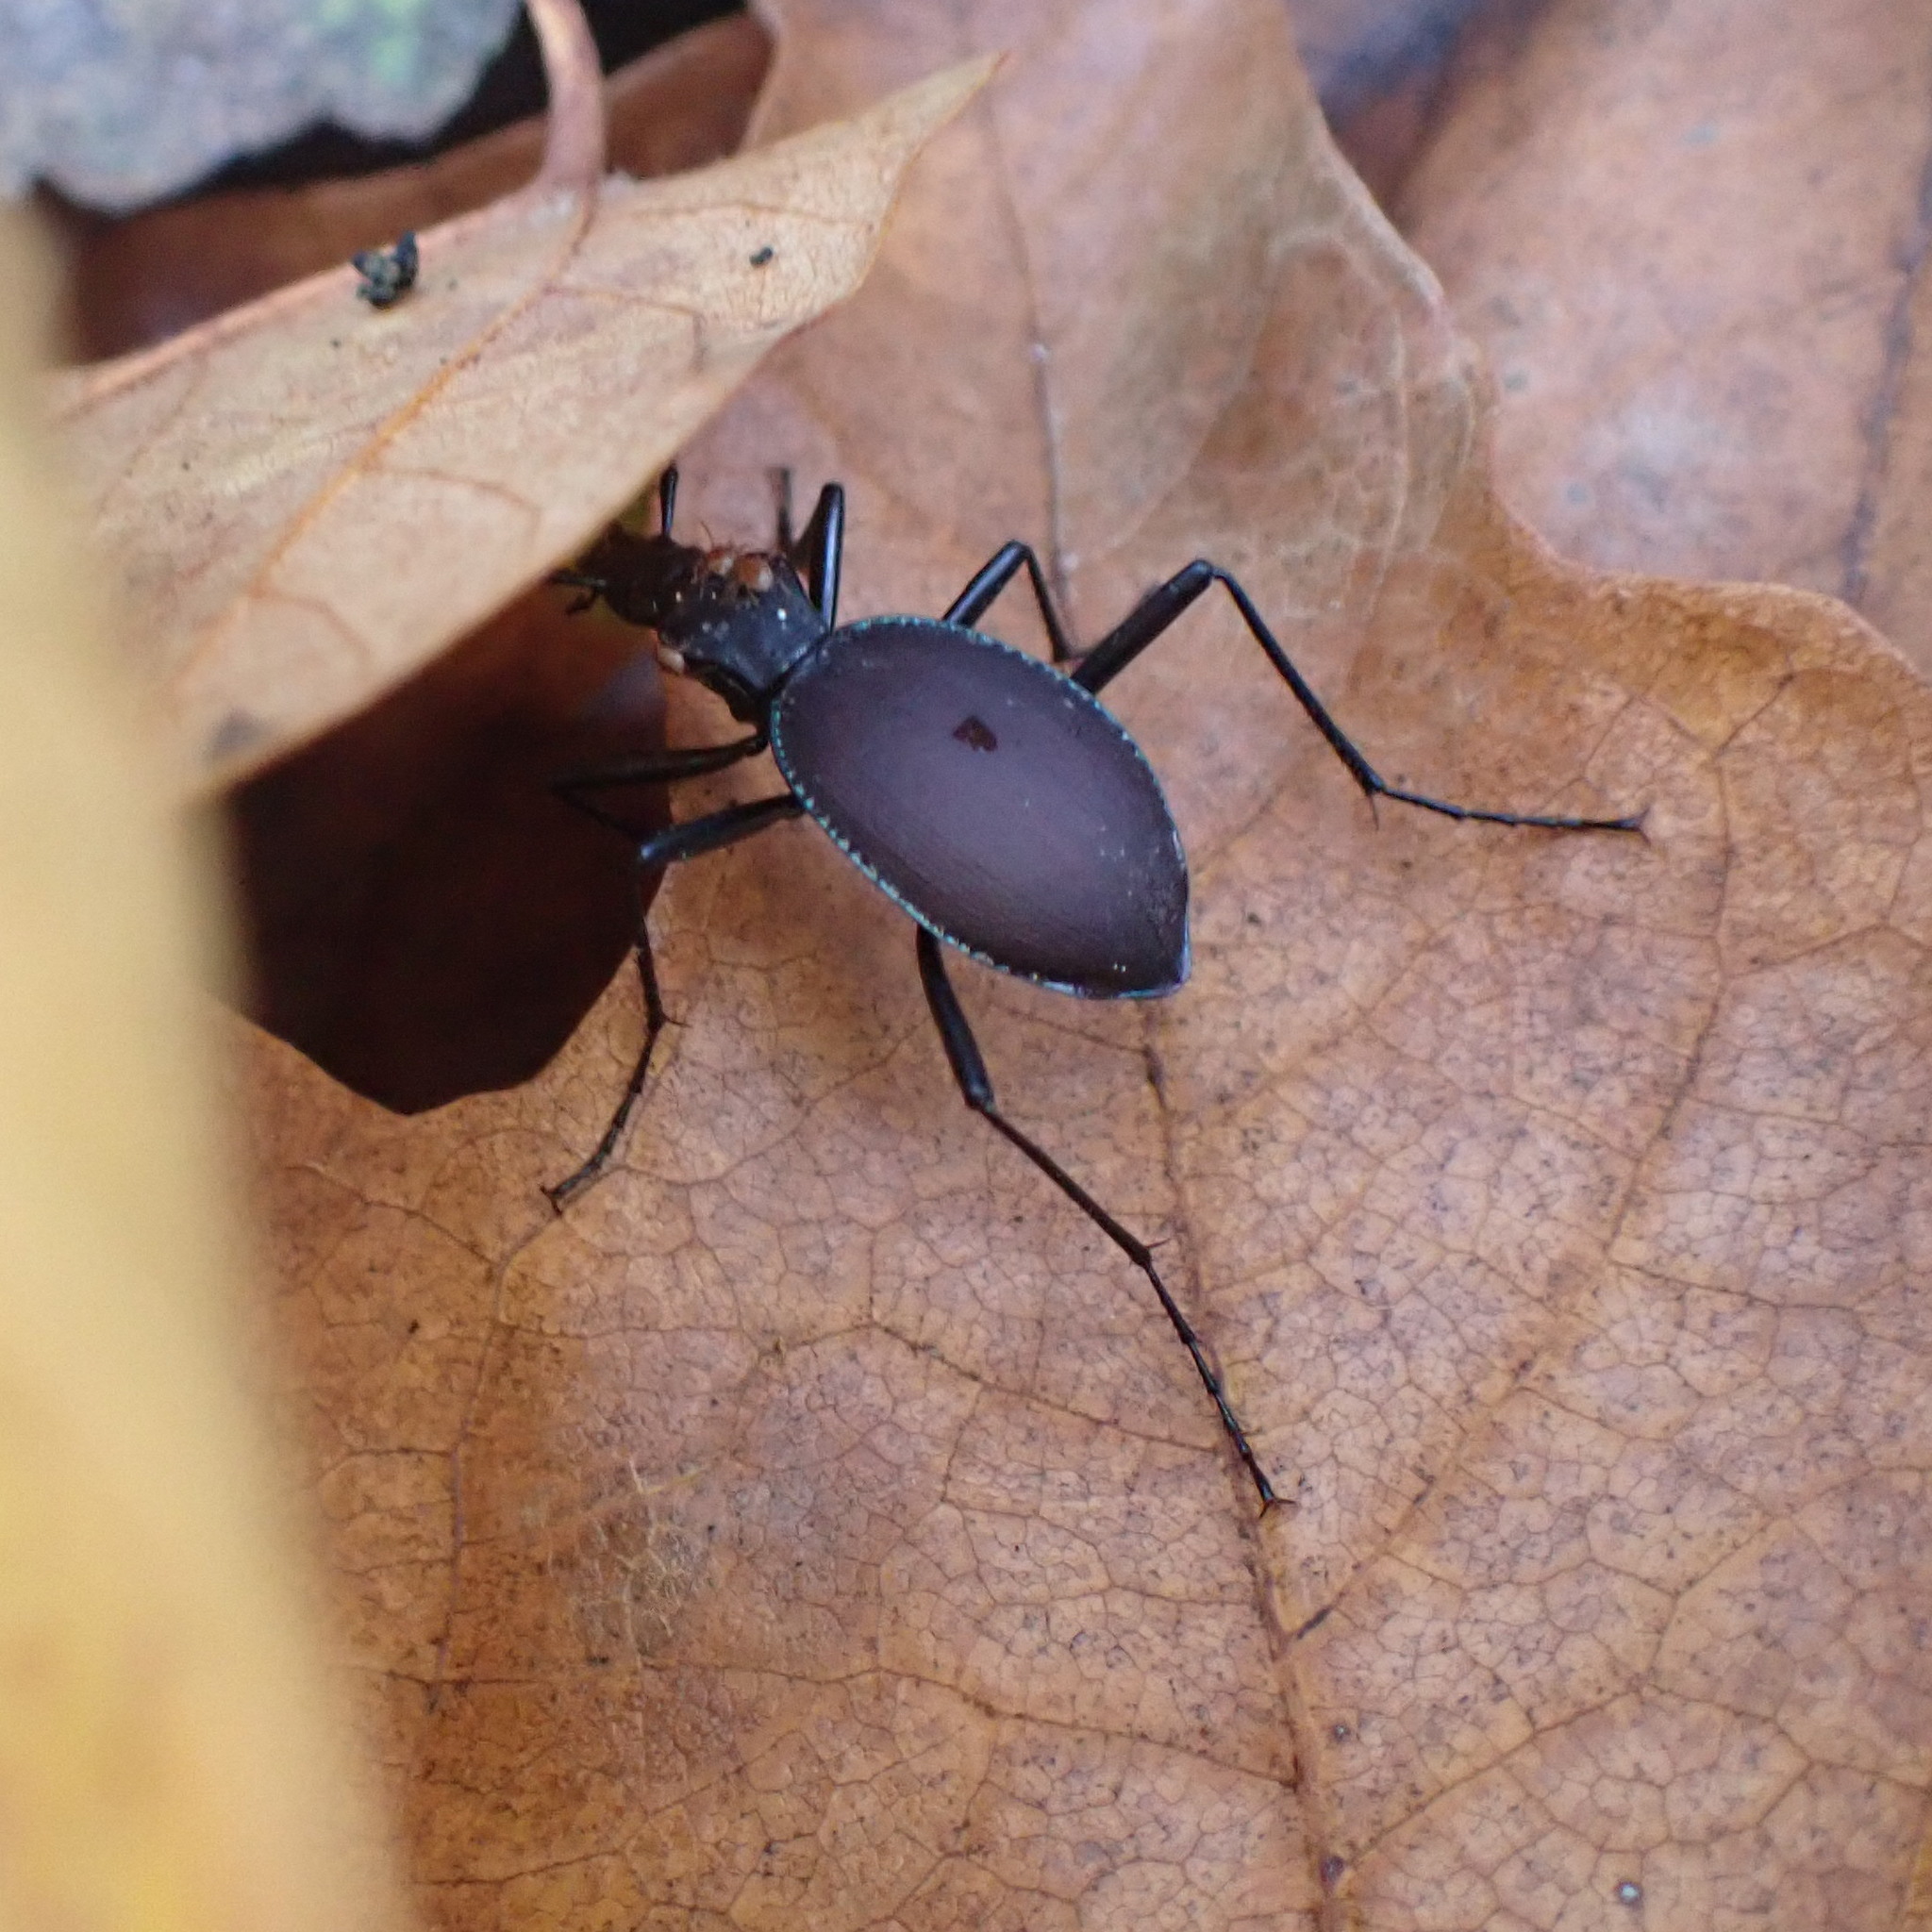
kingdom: Animalia
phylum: Arthropoda
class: Insecta
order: Coleoptera
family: Carabidae
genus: Scaphinotus
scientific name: Scaphinotus angulatus
